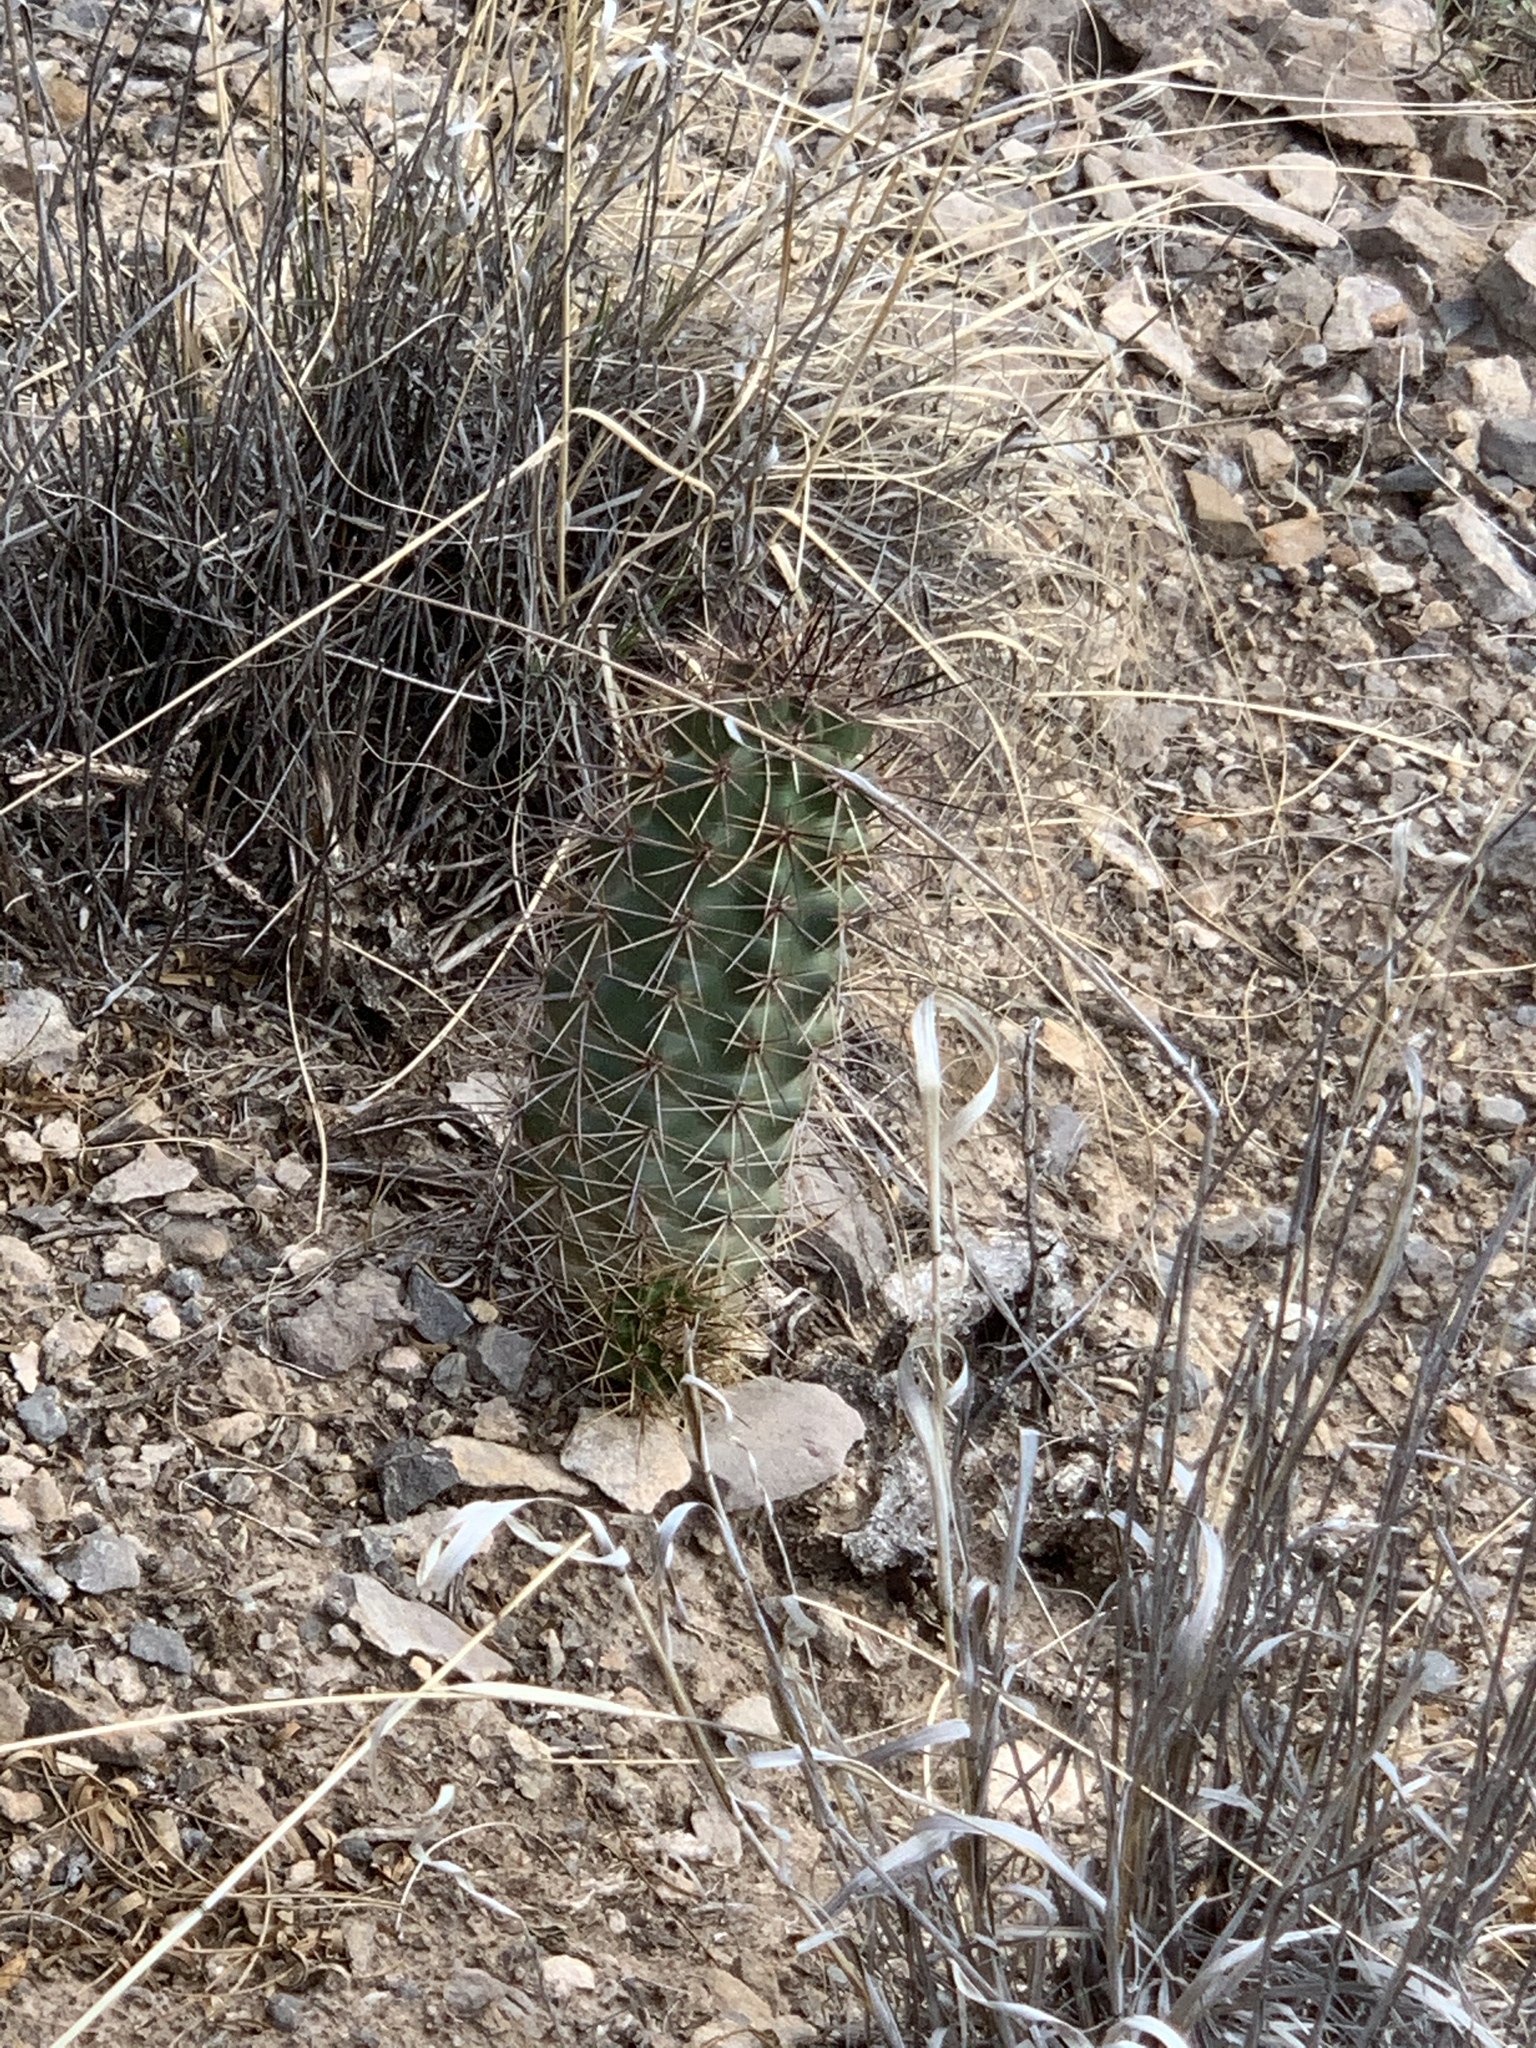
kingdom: Plantae
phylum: Tracheophyta
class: Magnoliopsida
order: Caryophyllales
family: Cactaceae
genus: Echinocereus
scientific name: Echinocereus coccineus
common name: Scarlet hedgehog cactus
